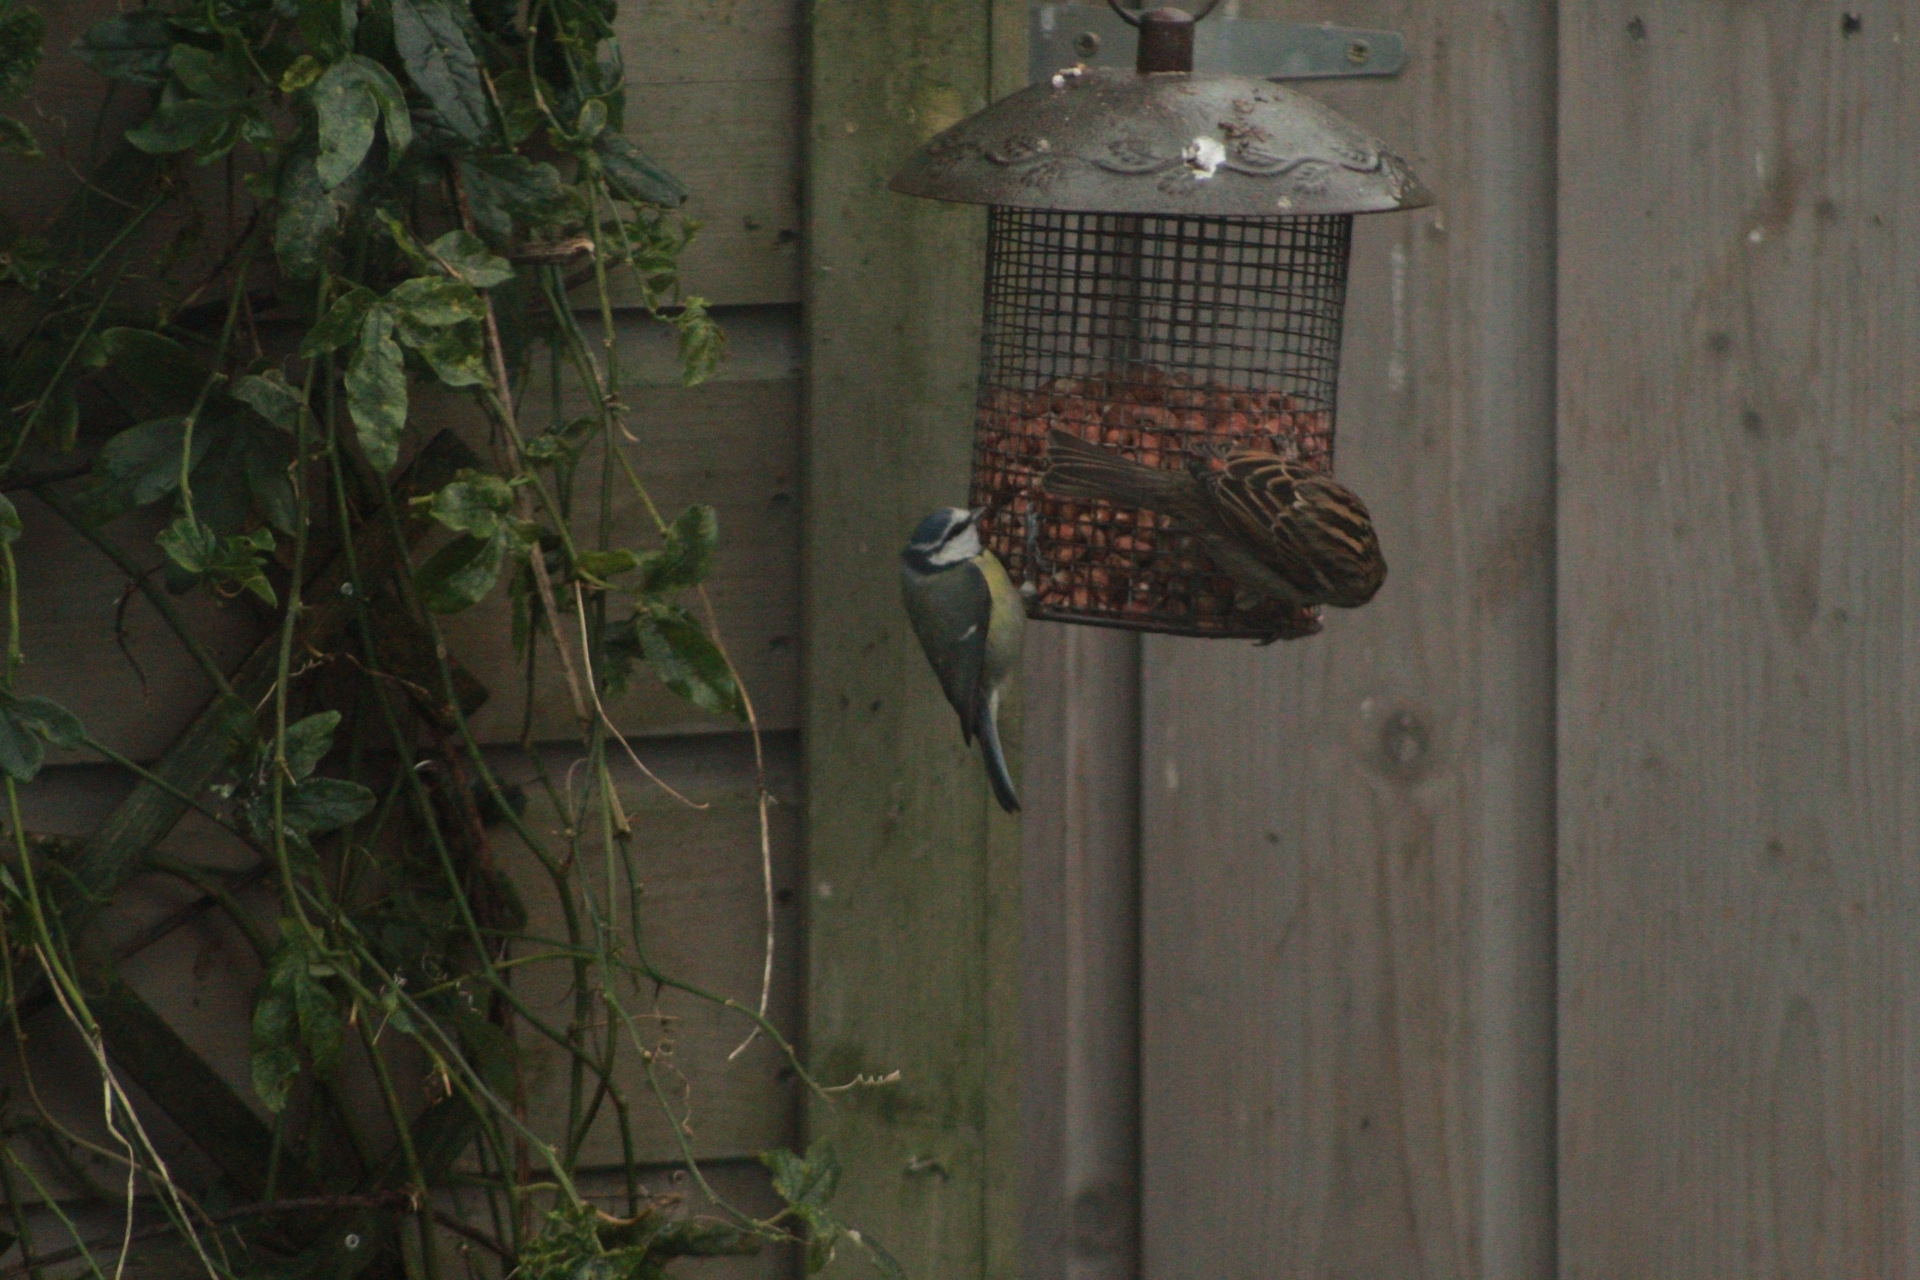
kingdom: Animalia
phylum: Chordata
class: Aves
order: Passeriformes
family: Paridae
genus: Cyanistes
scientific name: Cyanistes caeruleus
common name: Eurasian blue tit
